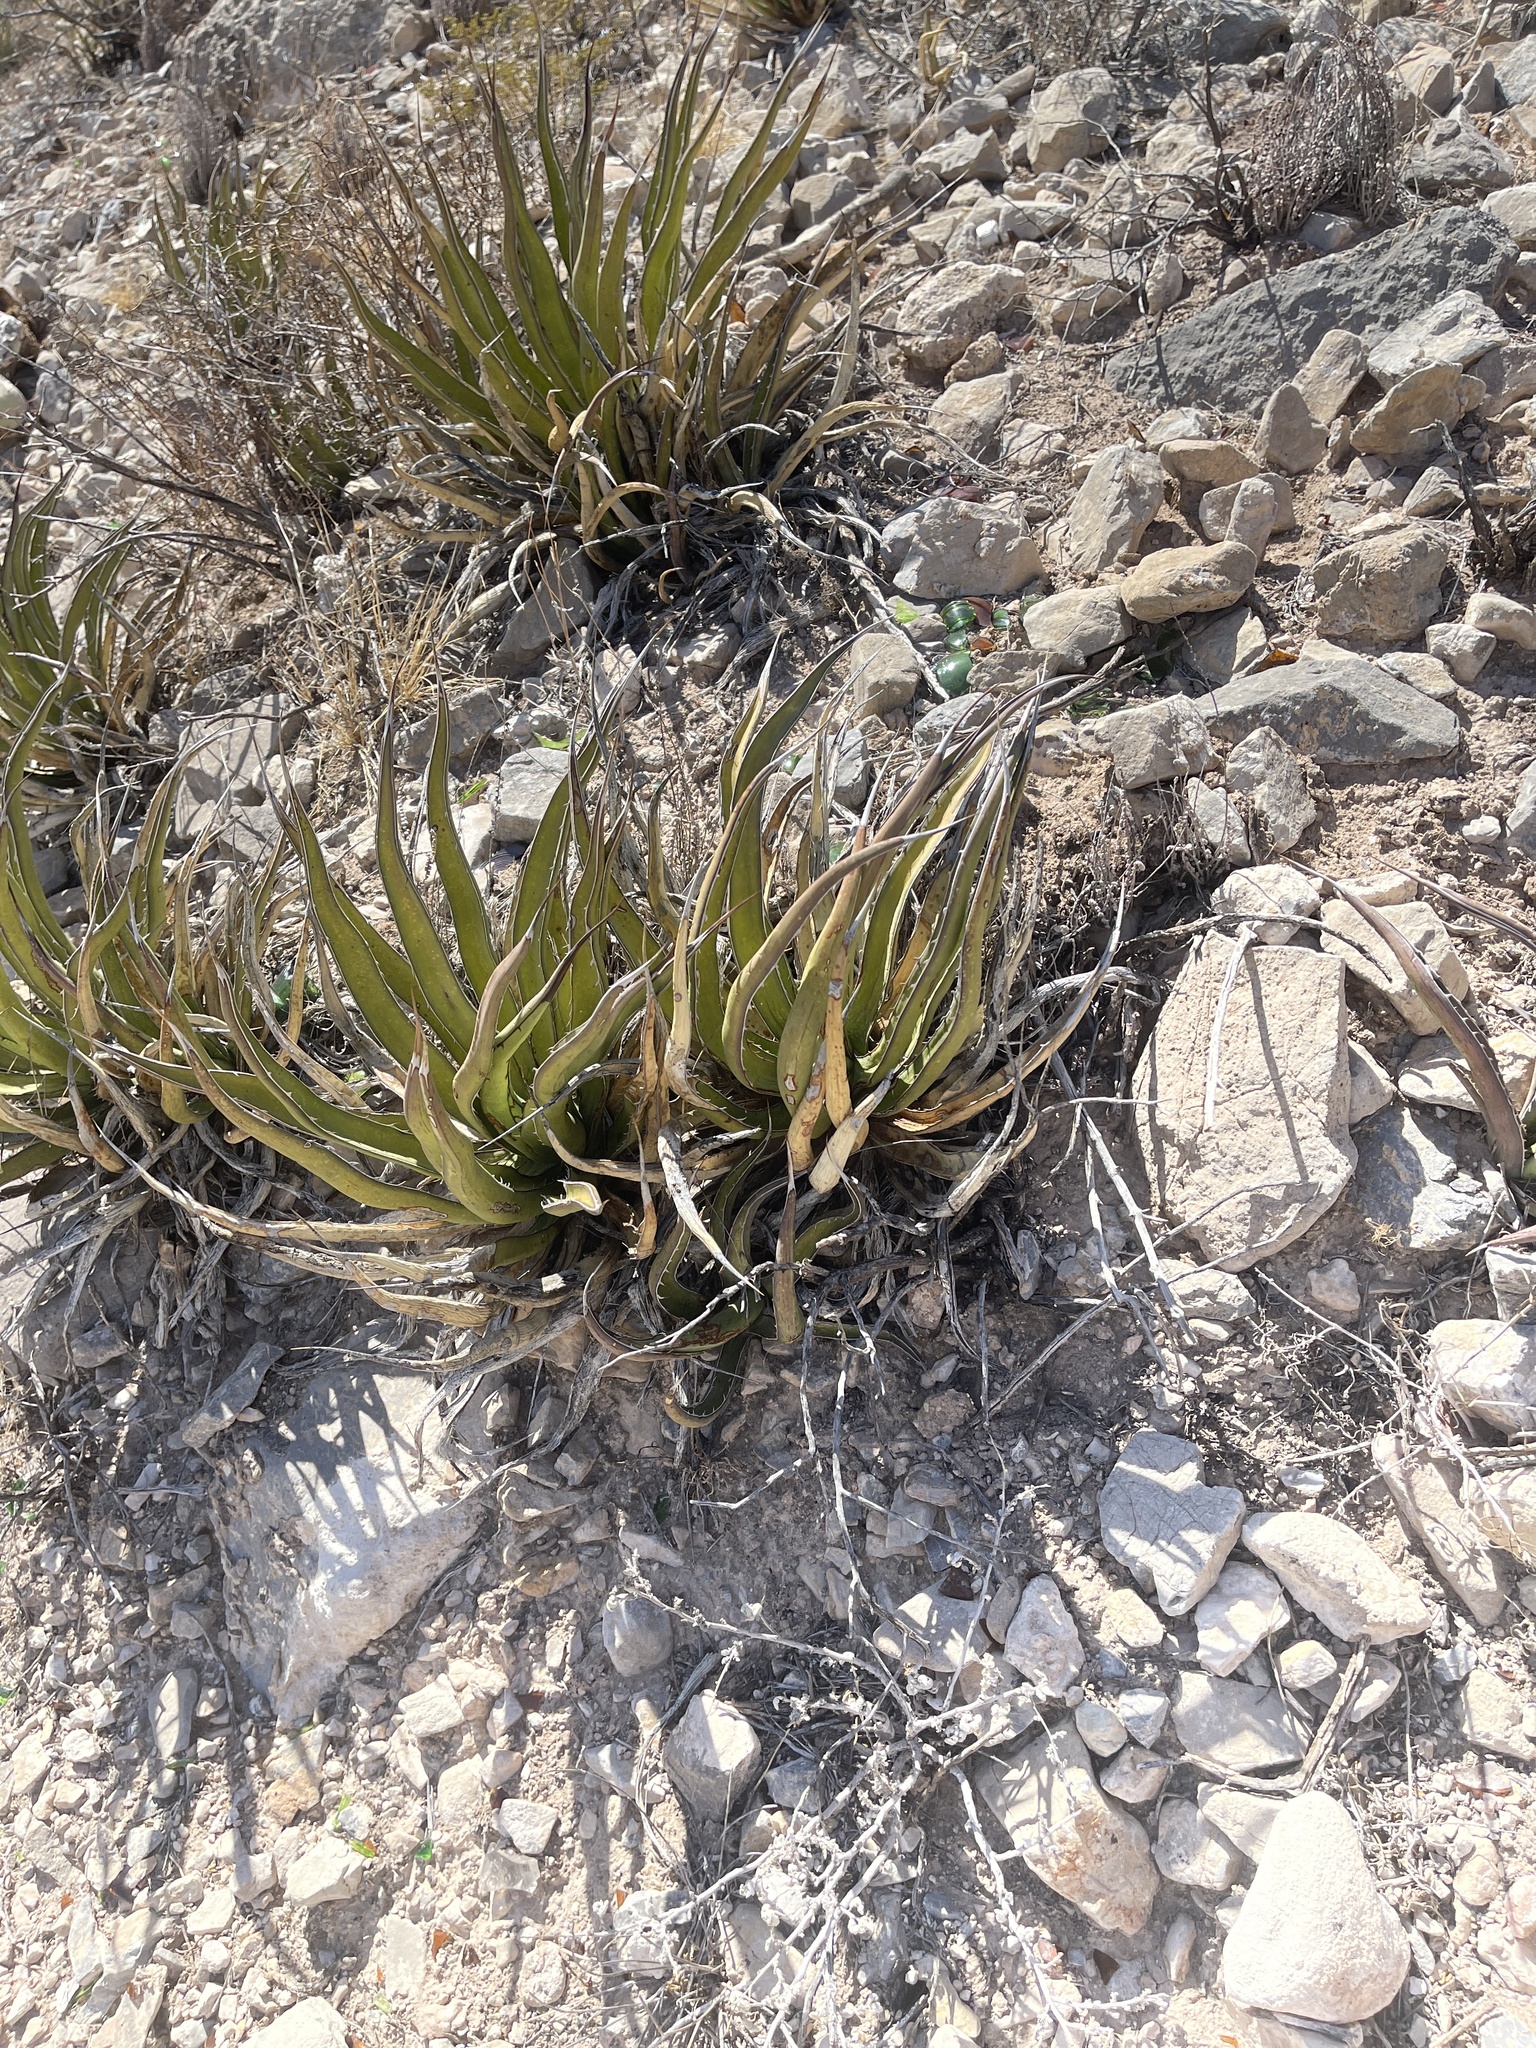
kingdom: Plantae
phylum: Tracheophyta
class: Liliopsida
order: Asparagales
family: Asparagaceae
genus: Agave
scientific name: Agave lechuguilla
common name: Lecheguilla agave
